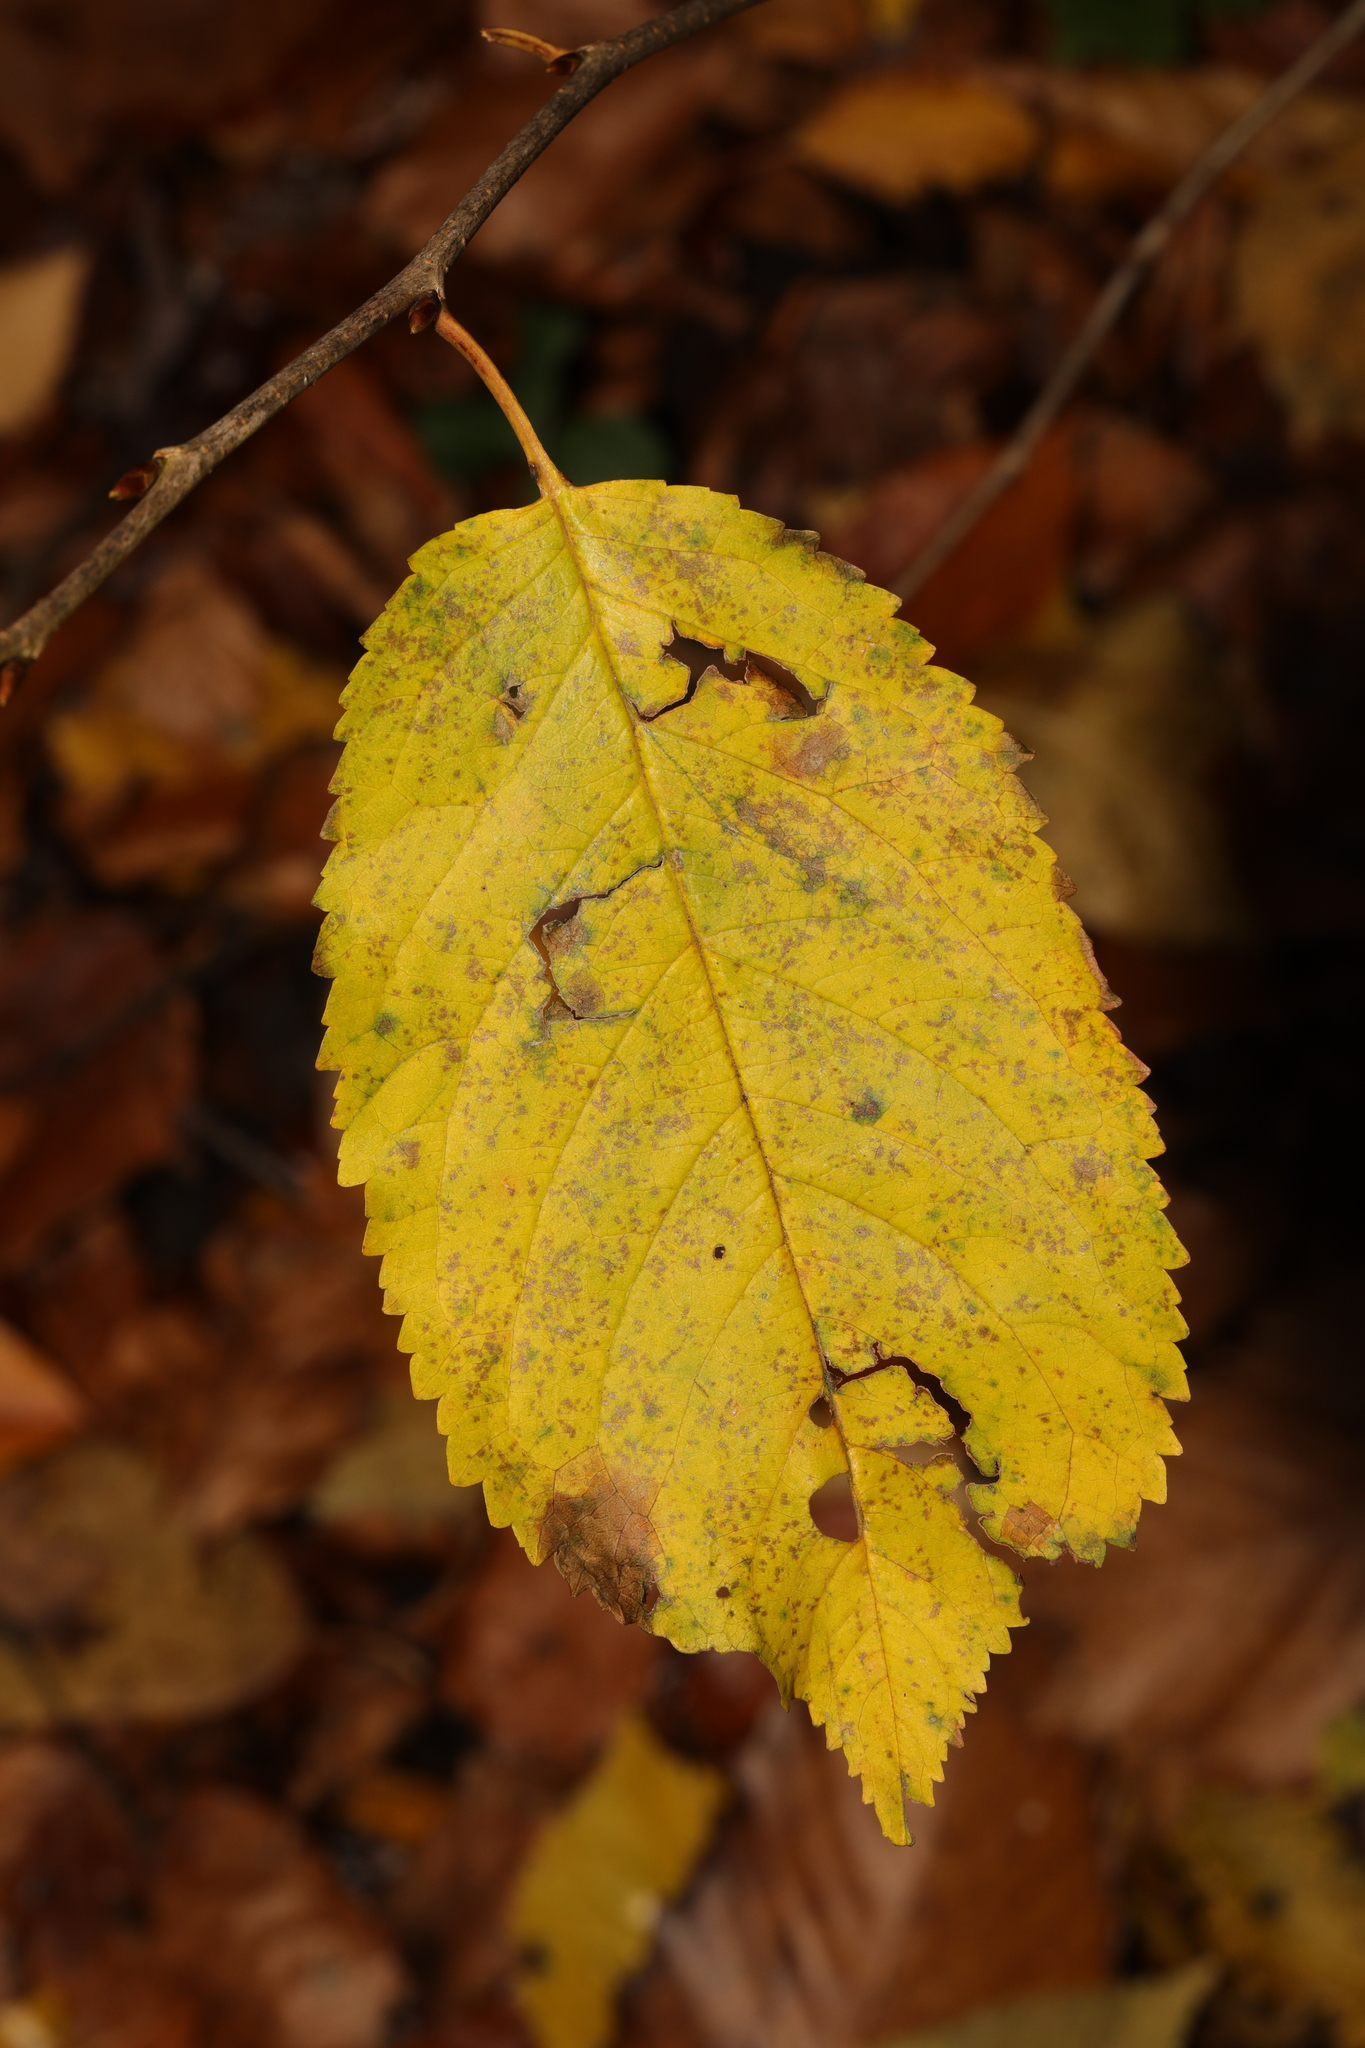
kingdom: Plantae
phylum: Tracheophyta
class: Magnoliopsida
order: Rosales
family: Rosaceae
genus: Prunus
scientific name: Prunus avium
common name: Sweet cherry
